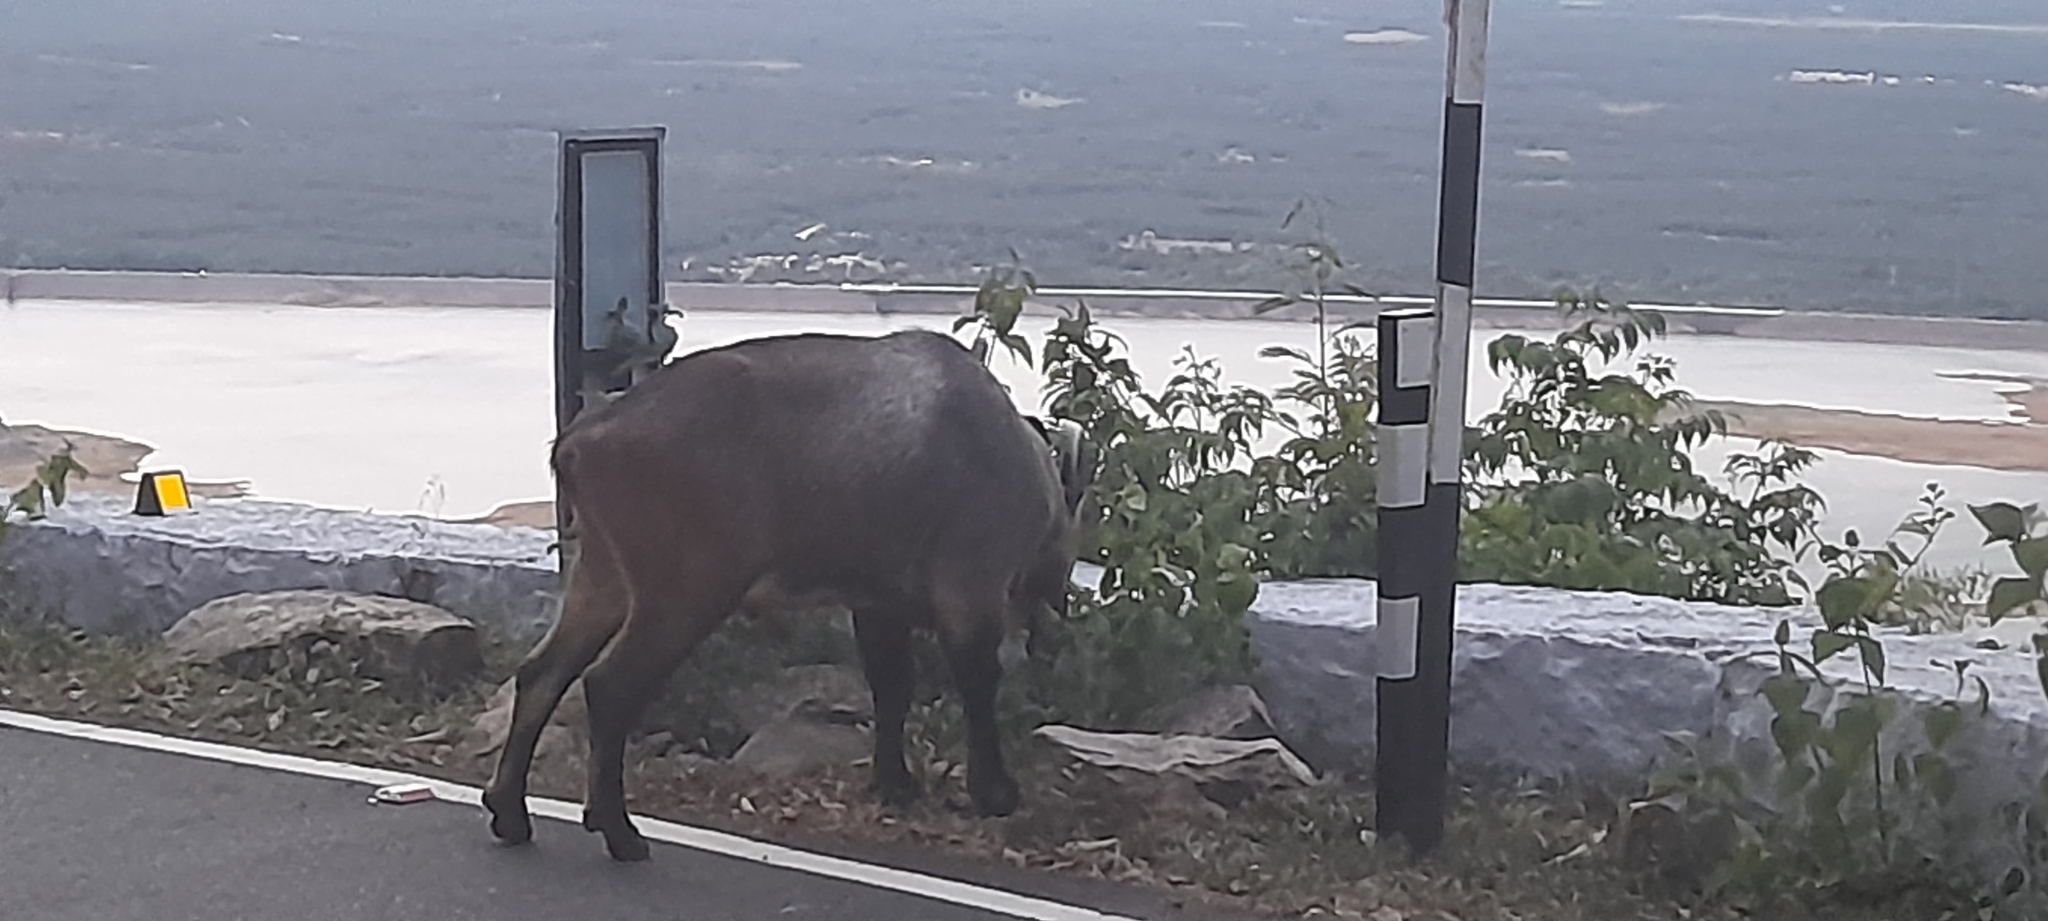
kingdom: Animalia
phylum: Chordata
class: Mammalia
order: Artiodactyla
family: Bovidae
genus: Hemitragus
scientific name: Hemitragus hylocrius
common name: Nilgiri tahr
